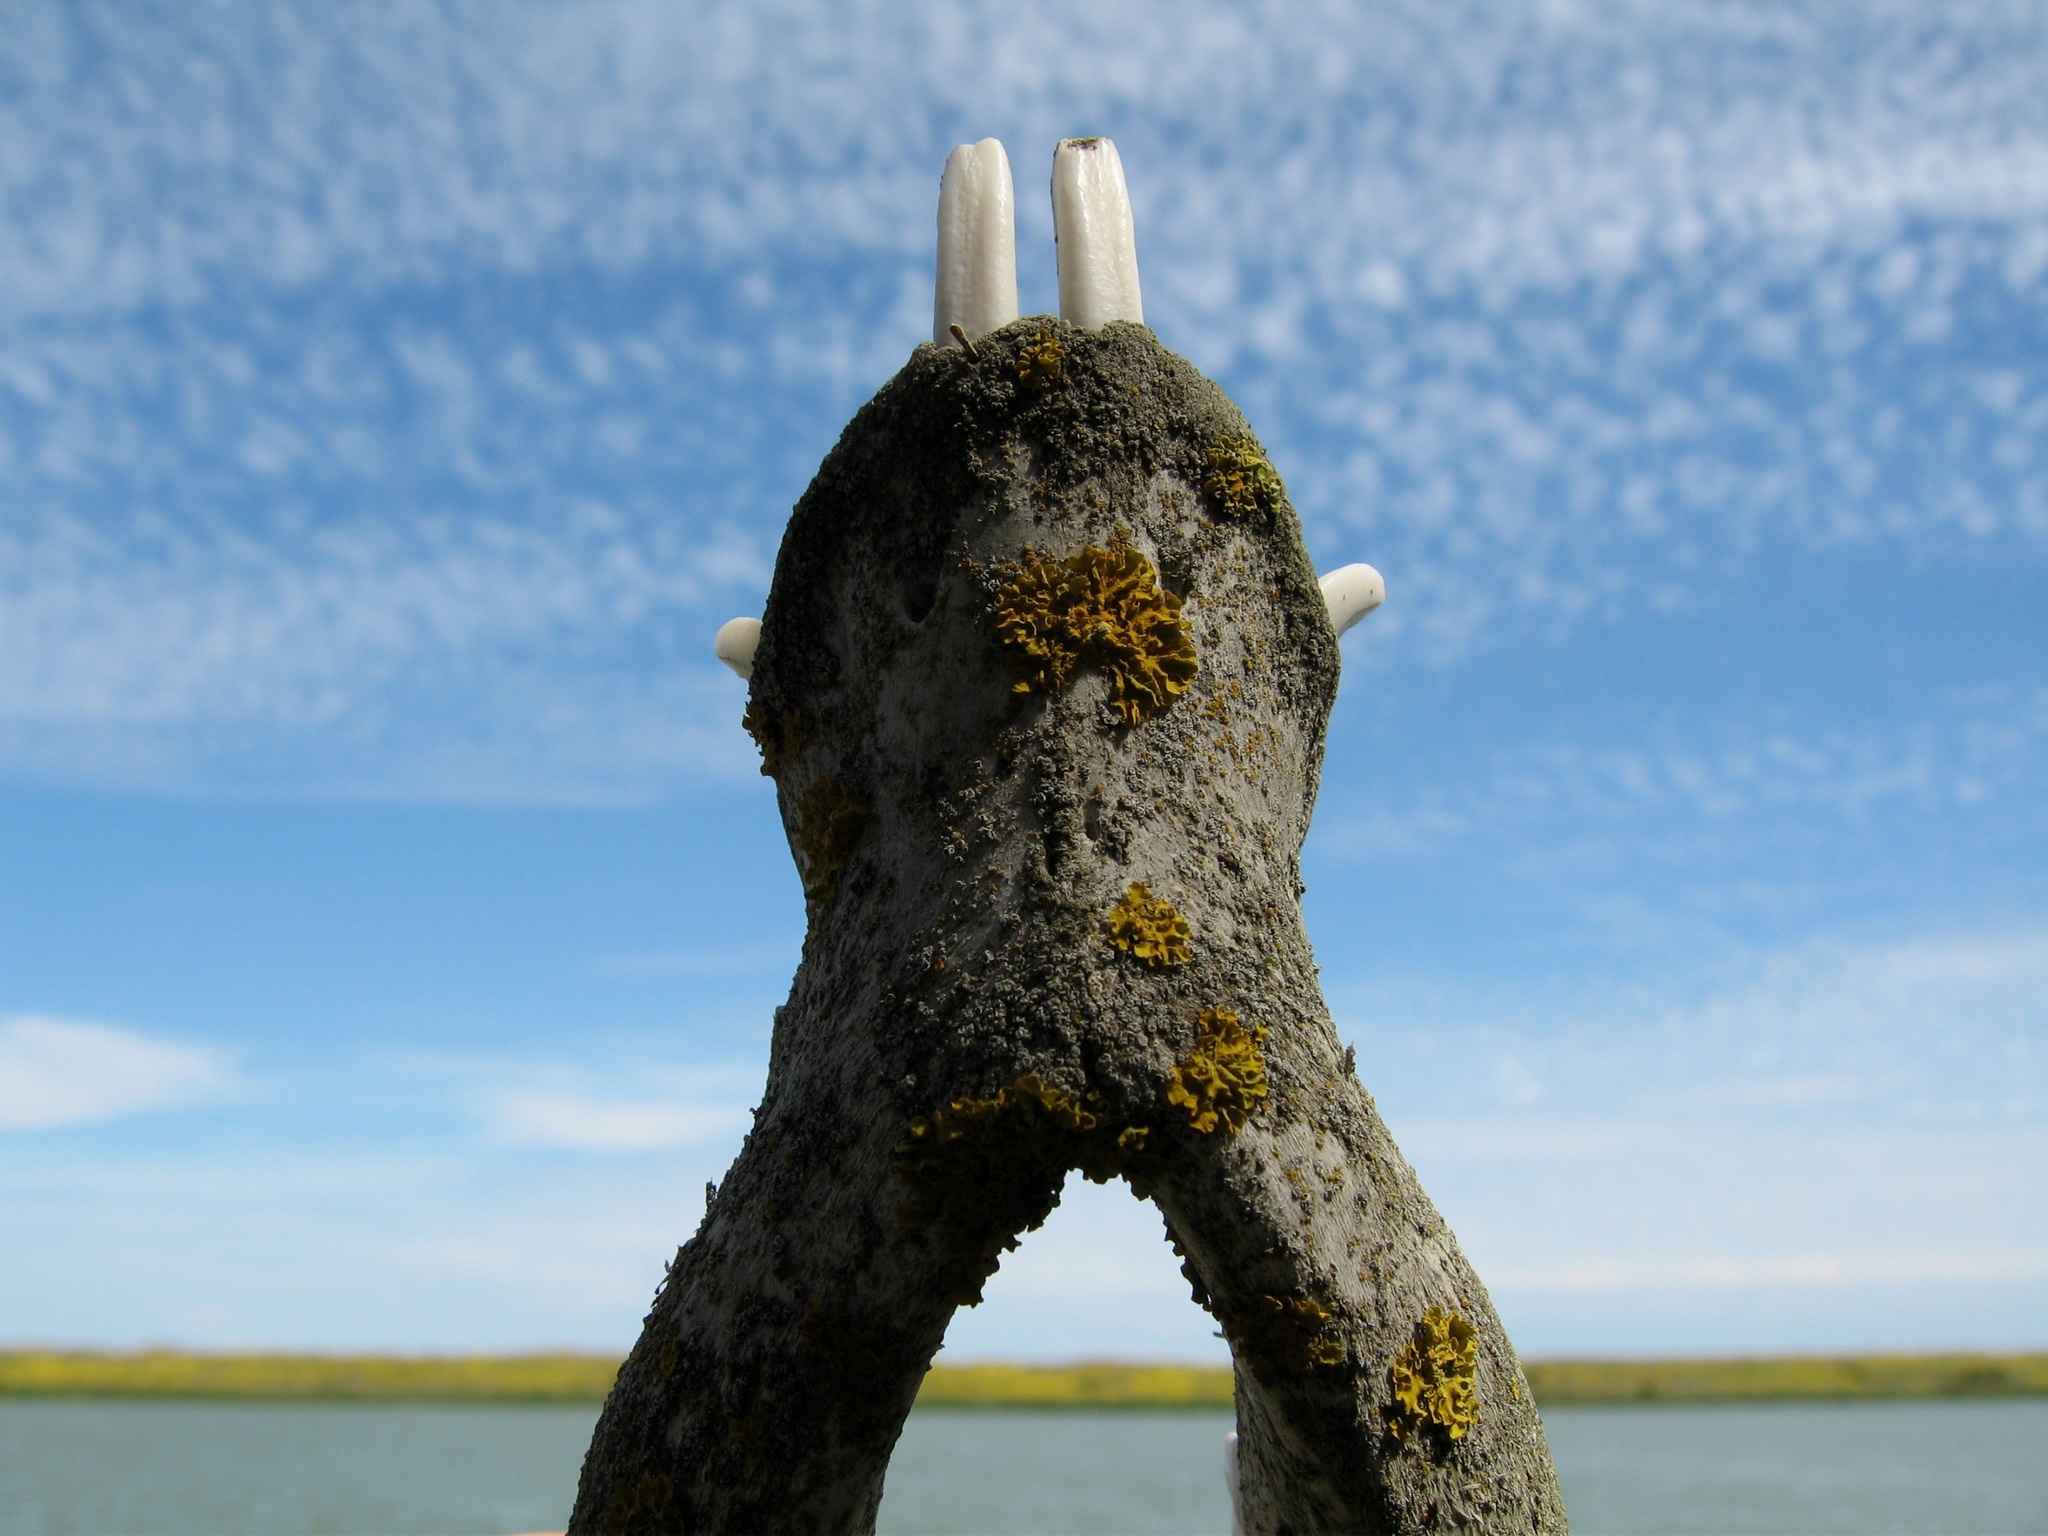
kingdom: Animalia
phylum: Chordata
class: Mammalia
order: Artiodactyla
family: Suidae
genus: Sus
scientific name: Sus scrofa
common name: Wild boar
